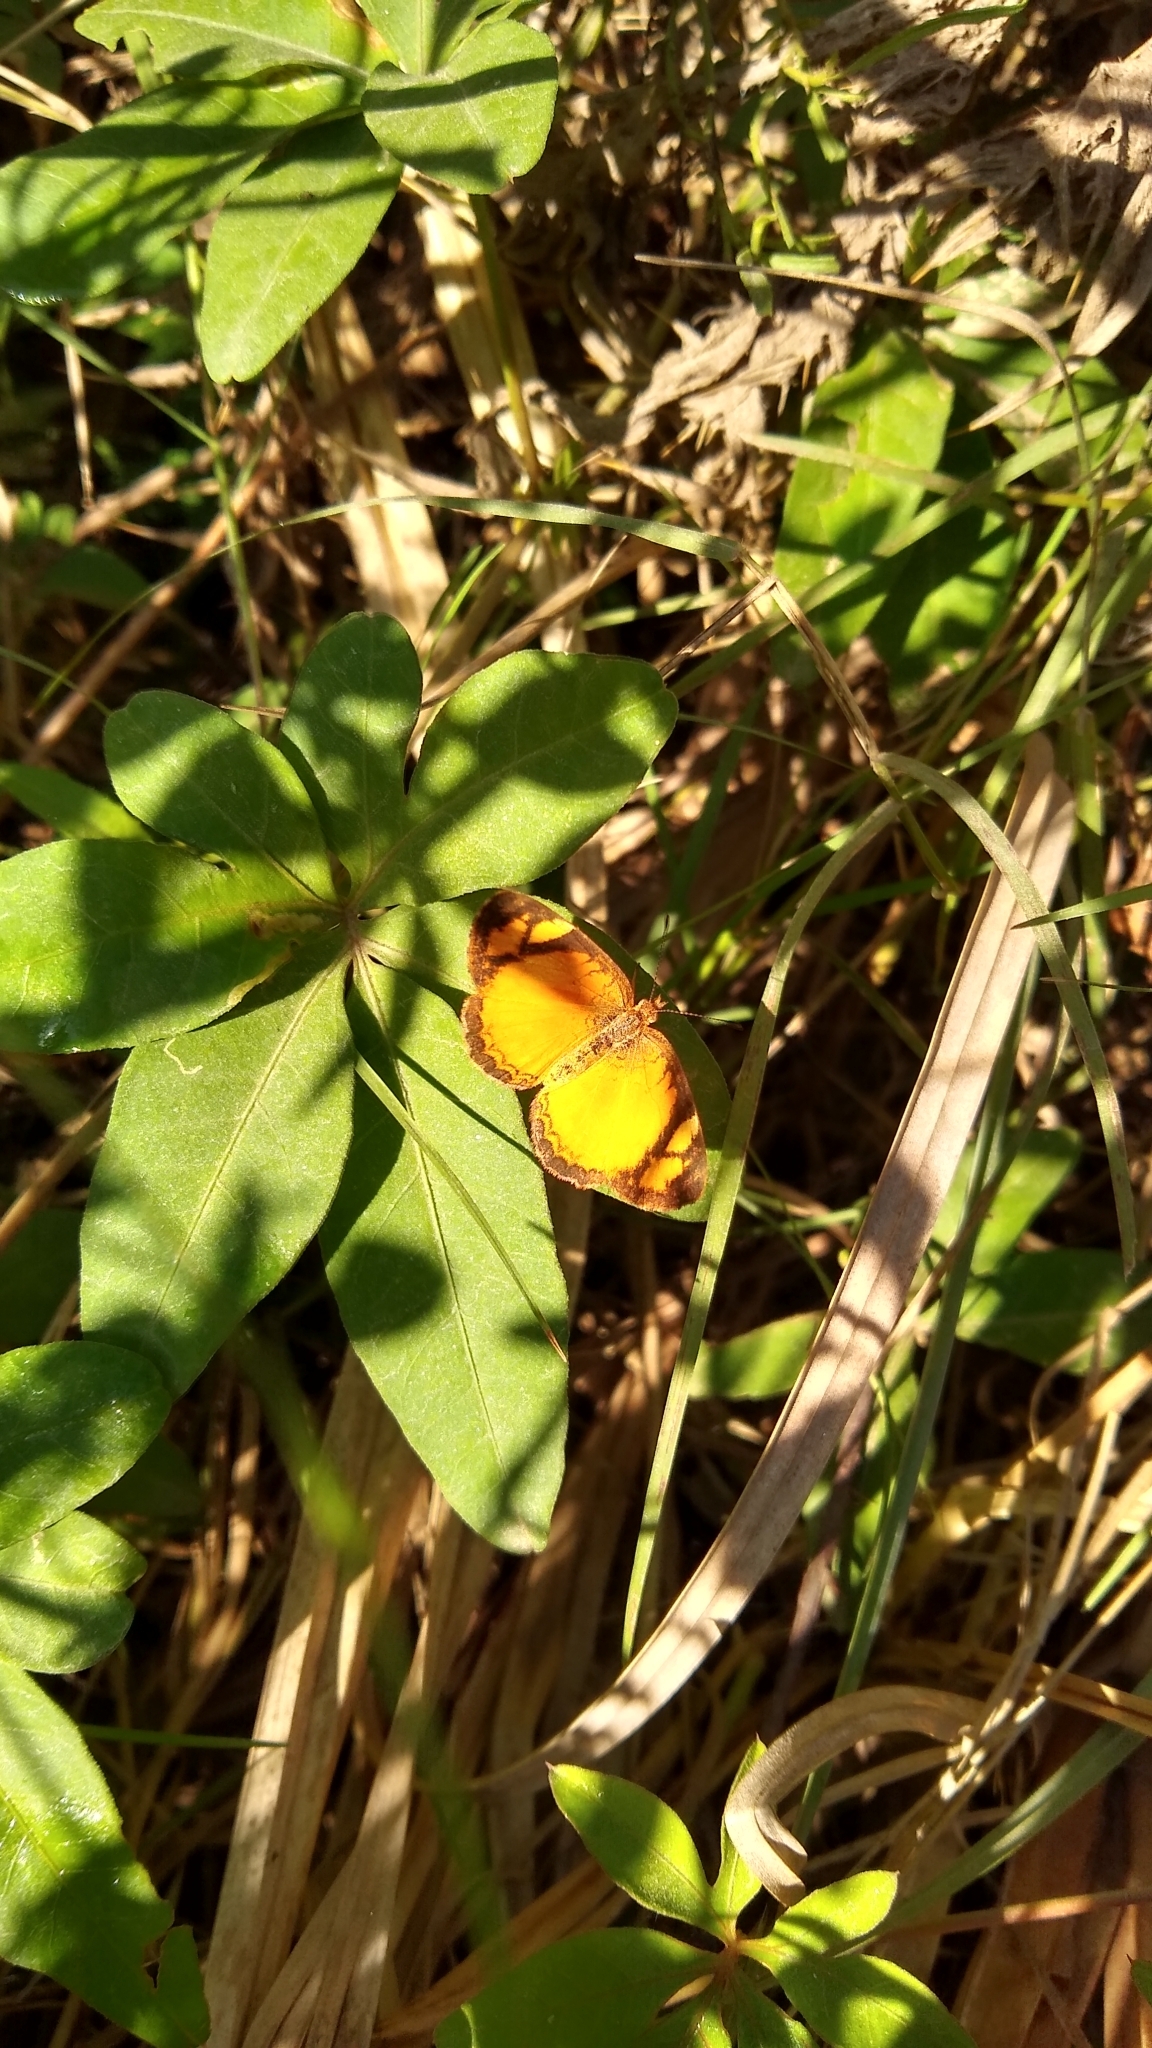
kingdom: Animalia
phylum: Arthropoda
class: Insecta
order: Lepidoptera
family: Nymphalidae
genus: Tegosa
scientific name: Tegosa claudina
